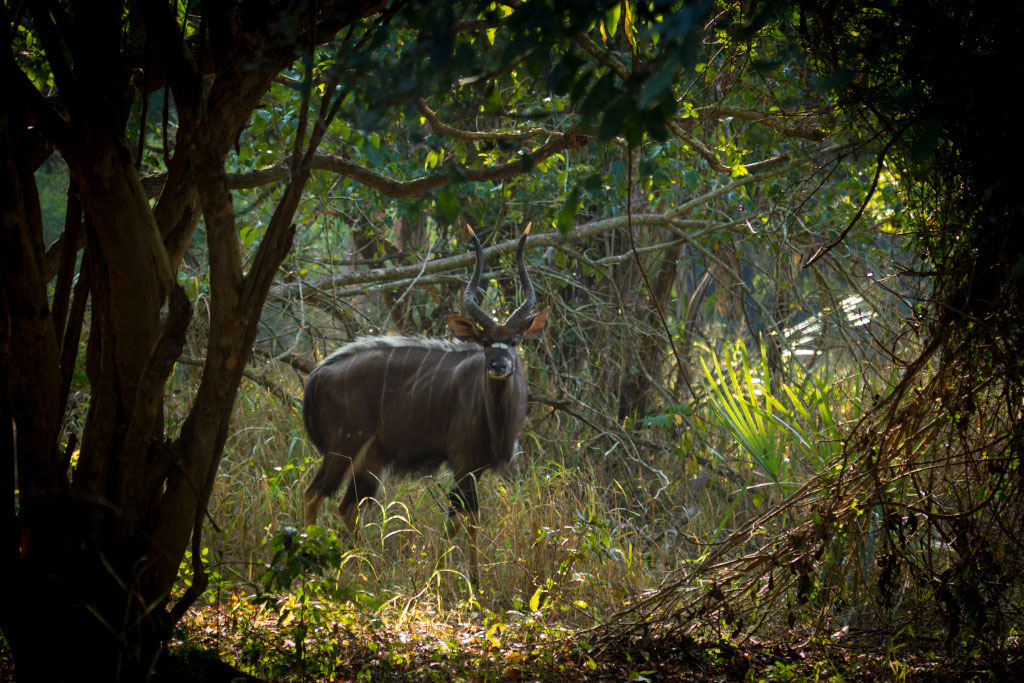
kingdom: Animalia
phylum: Chordata
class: Mammalia
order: Artiodactyla
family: Bovidae
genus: Tragelaphus
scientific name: Tragelaphus angasii
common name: Nyala
